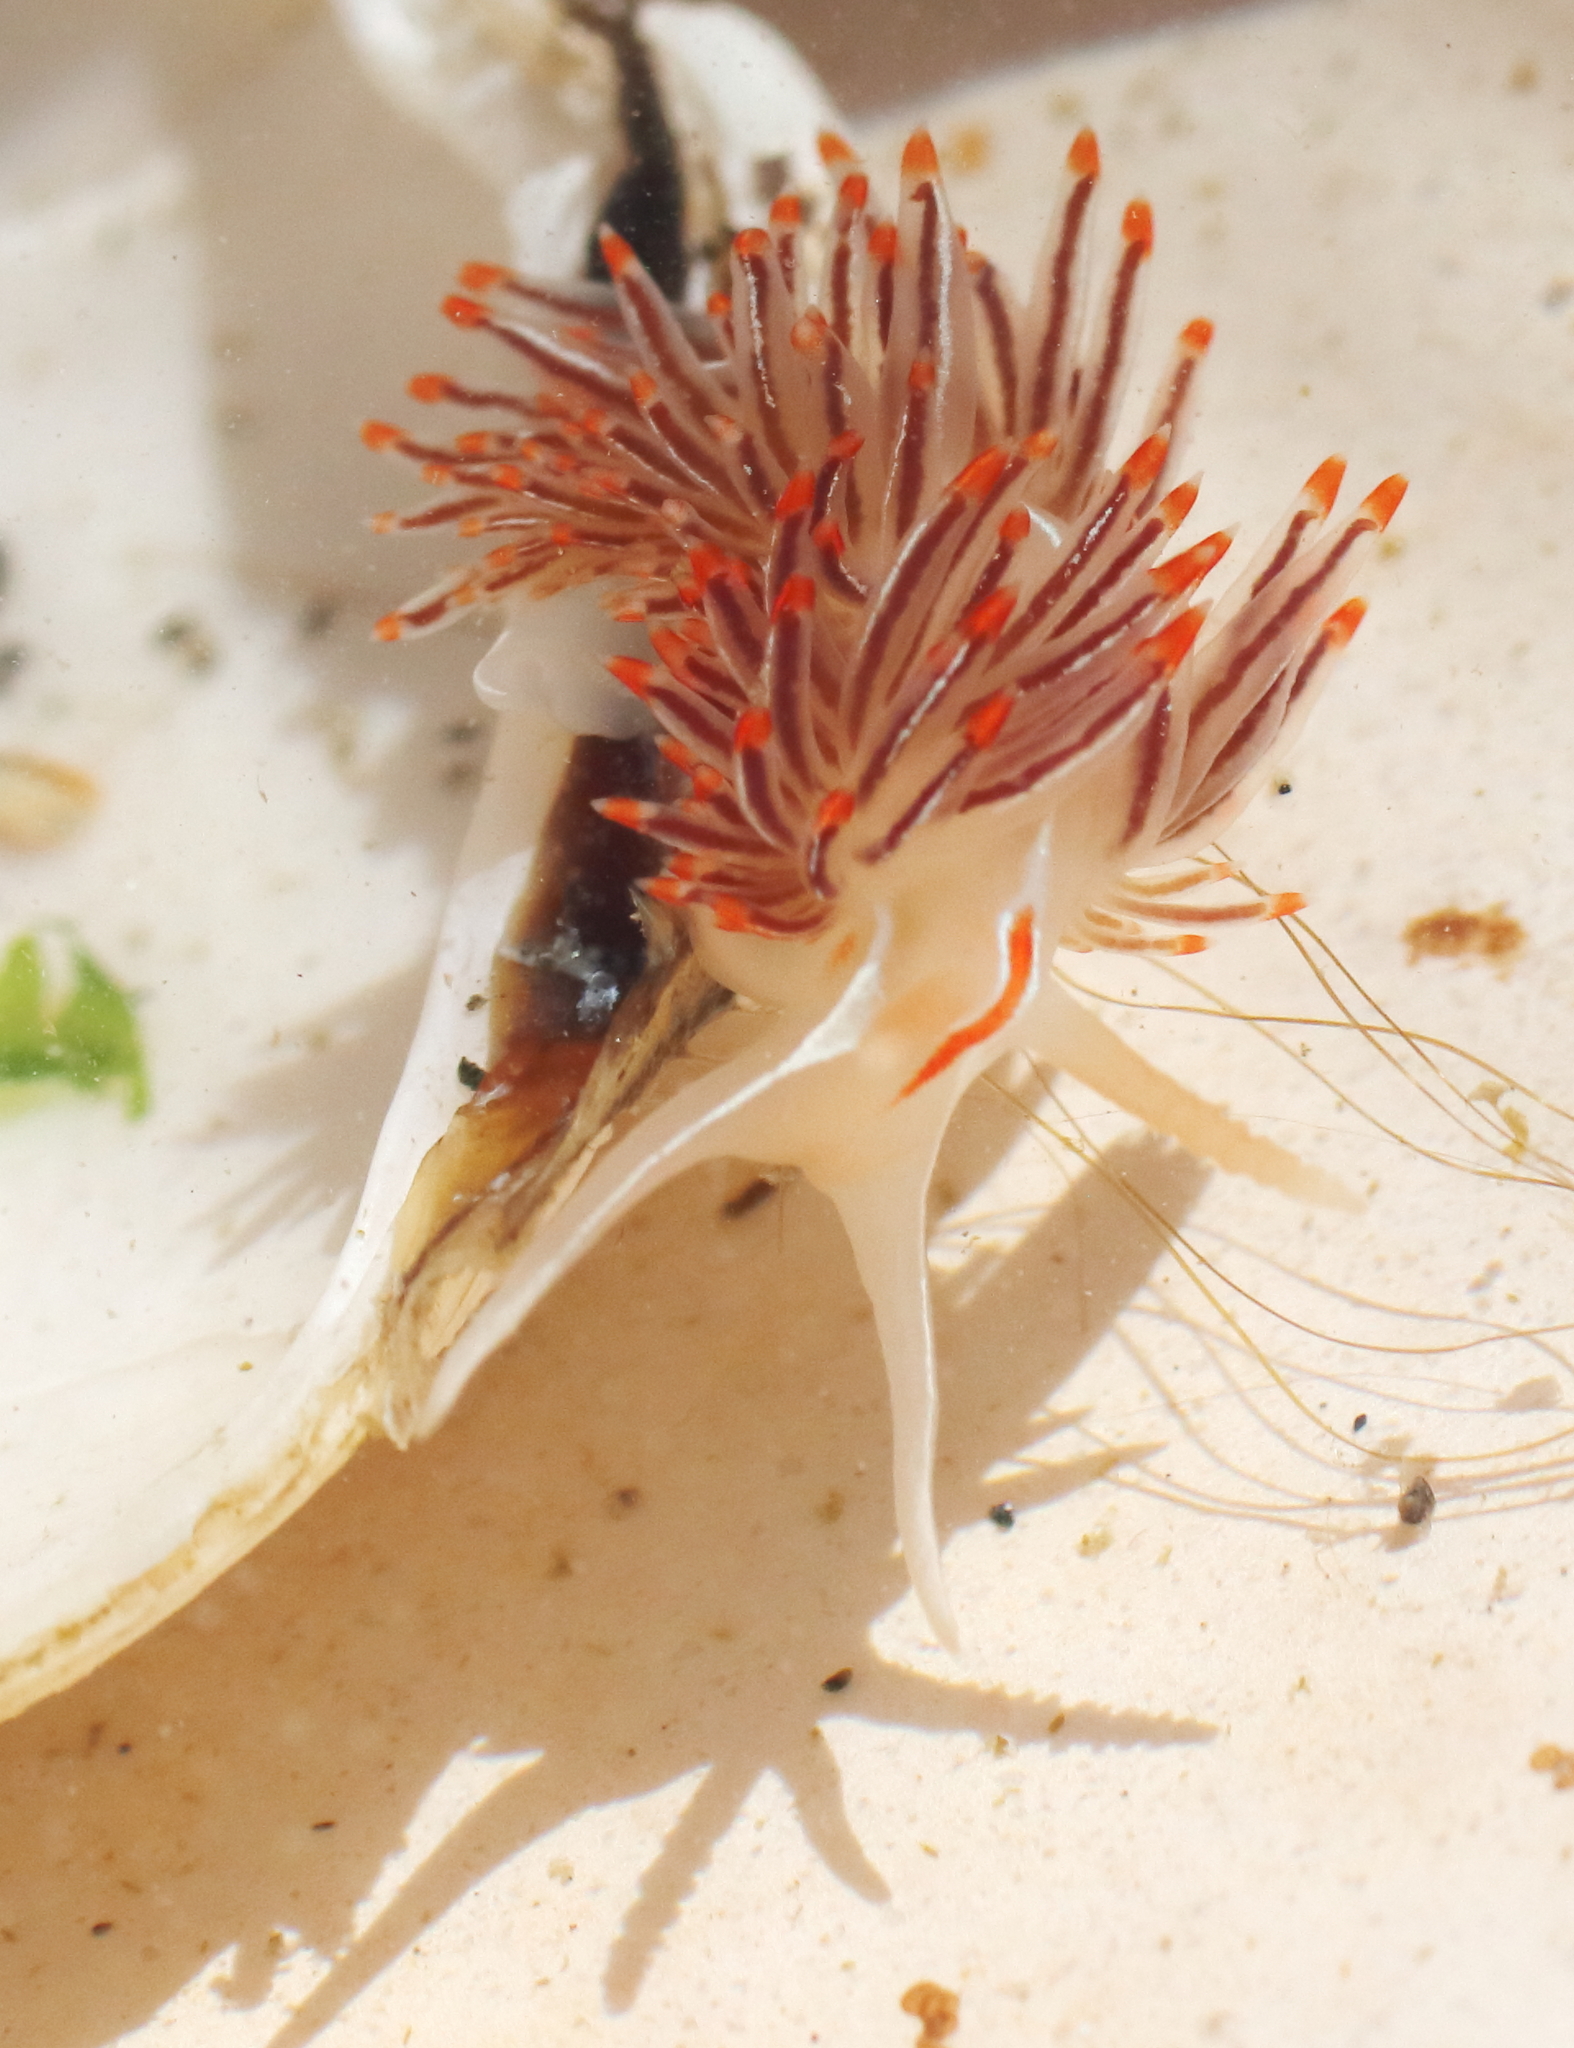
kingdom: Animalia
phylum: Mollusca
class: Gastropoda
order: Nudibranchia
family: Myrrhinidae
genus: Hermissenda
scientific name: Hermissenda crassicornis
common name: Hermissenda
